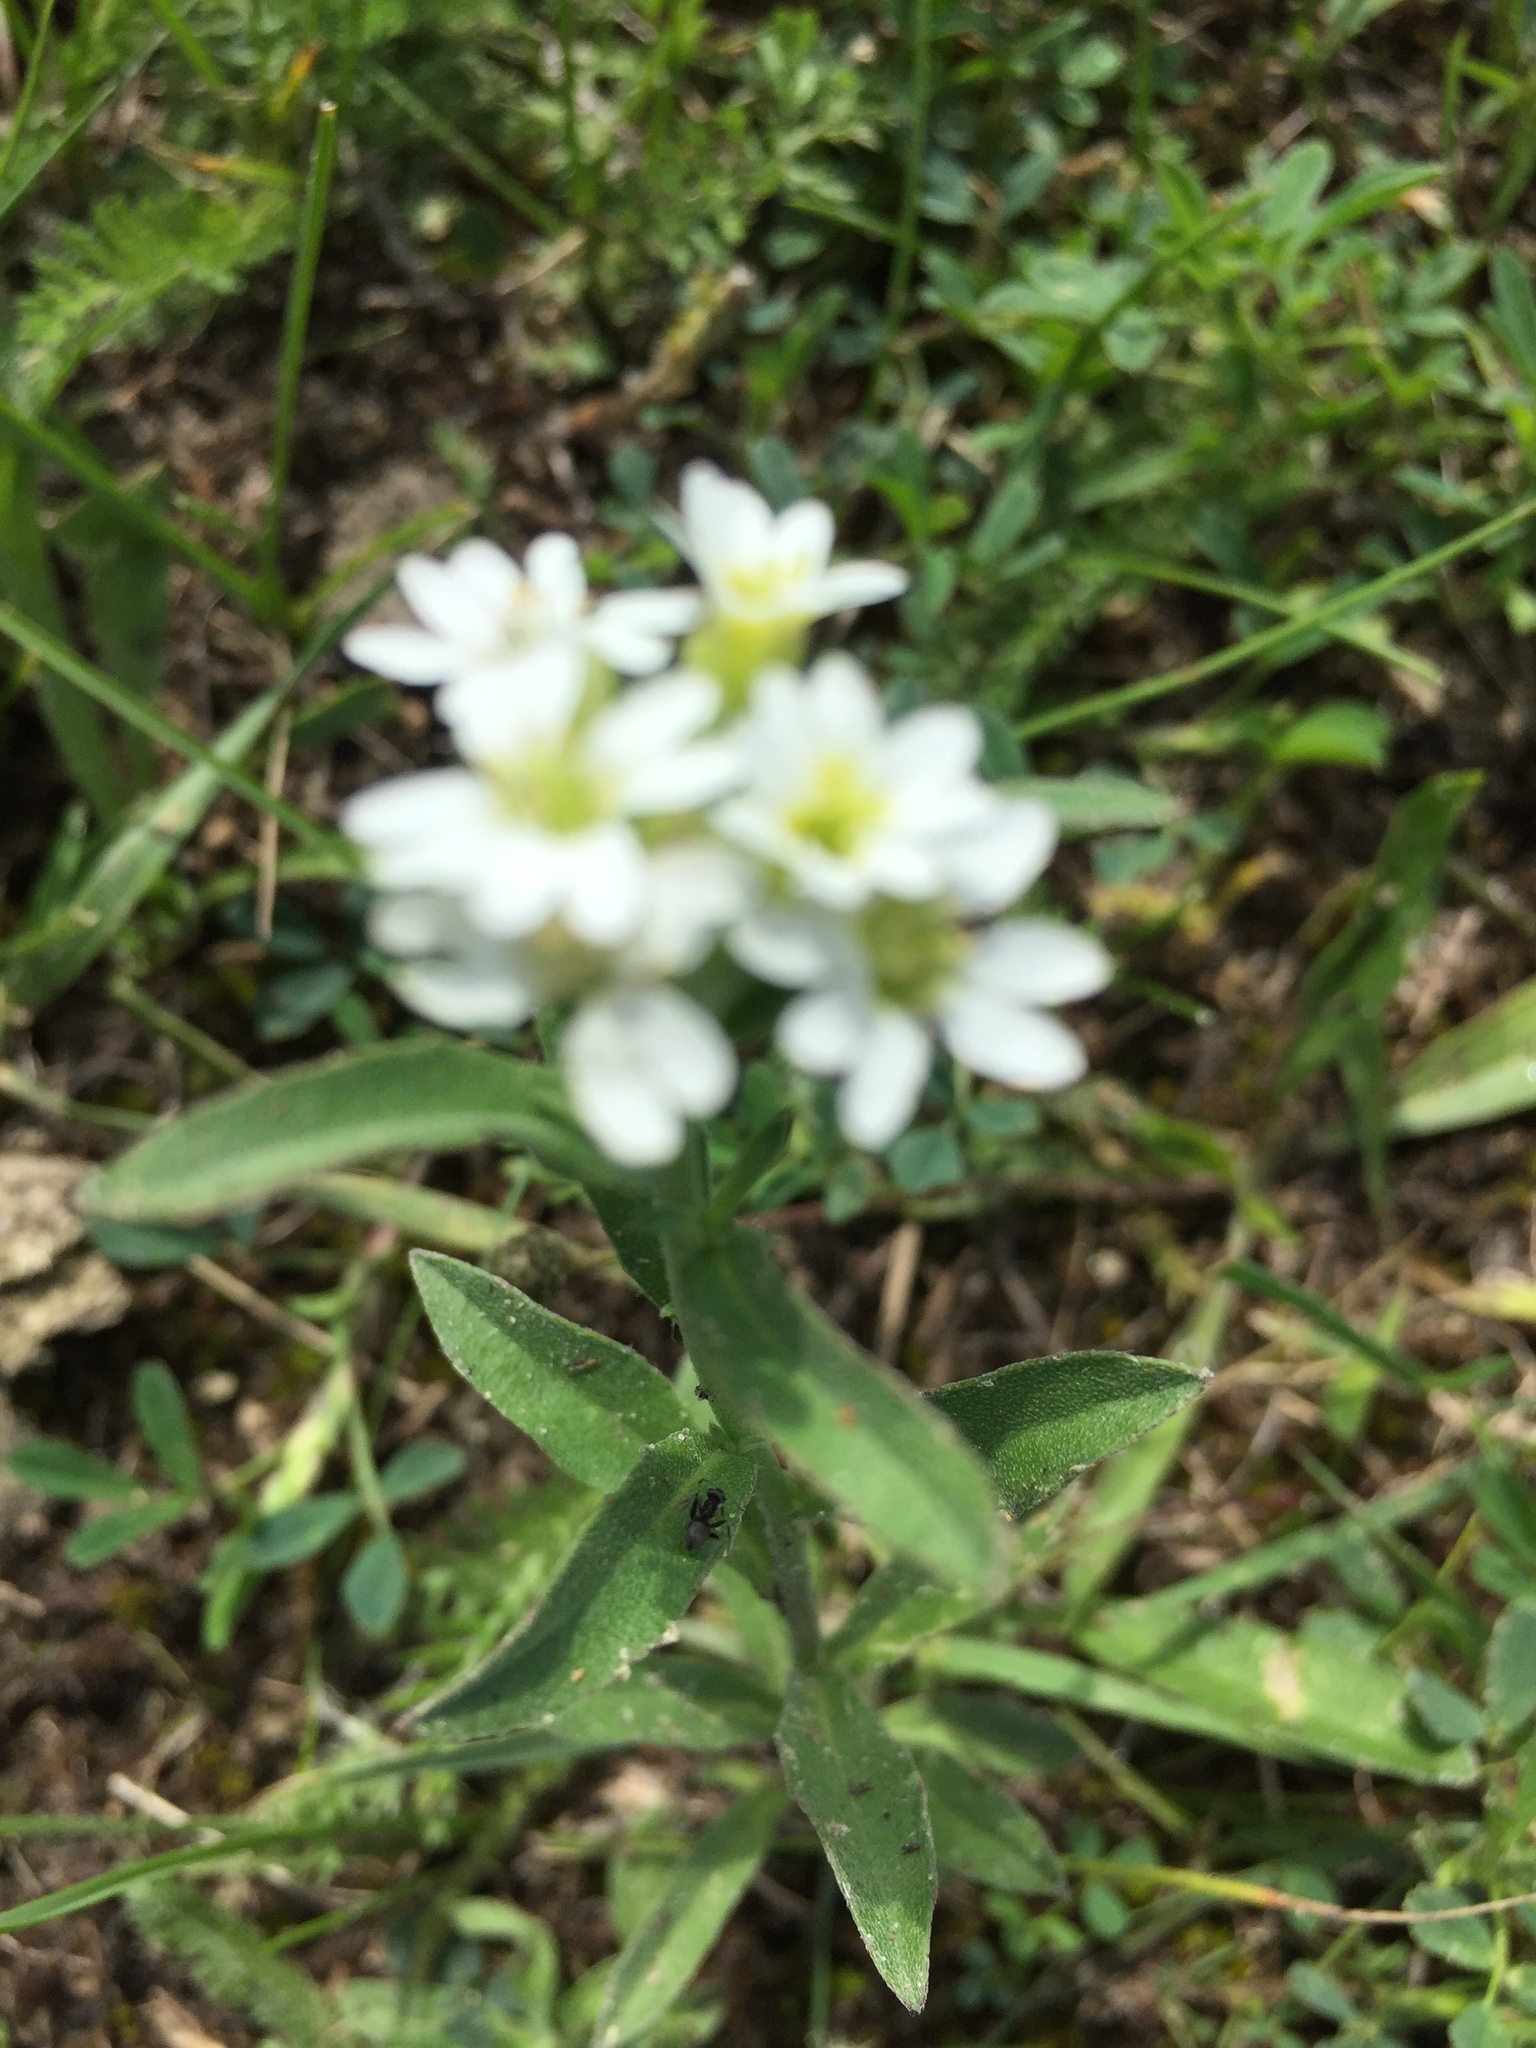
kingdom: Plantae
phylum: Tracheophyta
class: Magnoliopsida
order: Brassicales
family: Brassicaceae
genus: Berteroa
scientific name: Berteroa incana
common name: Hoary alison
